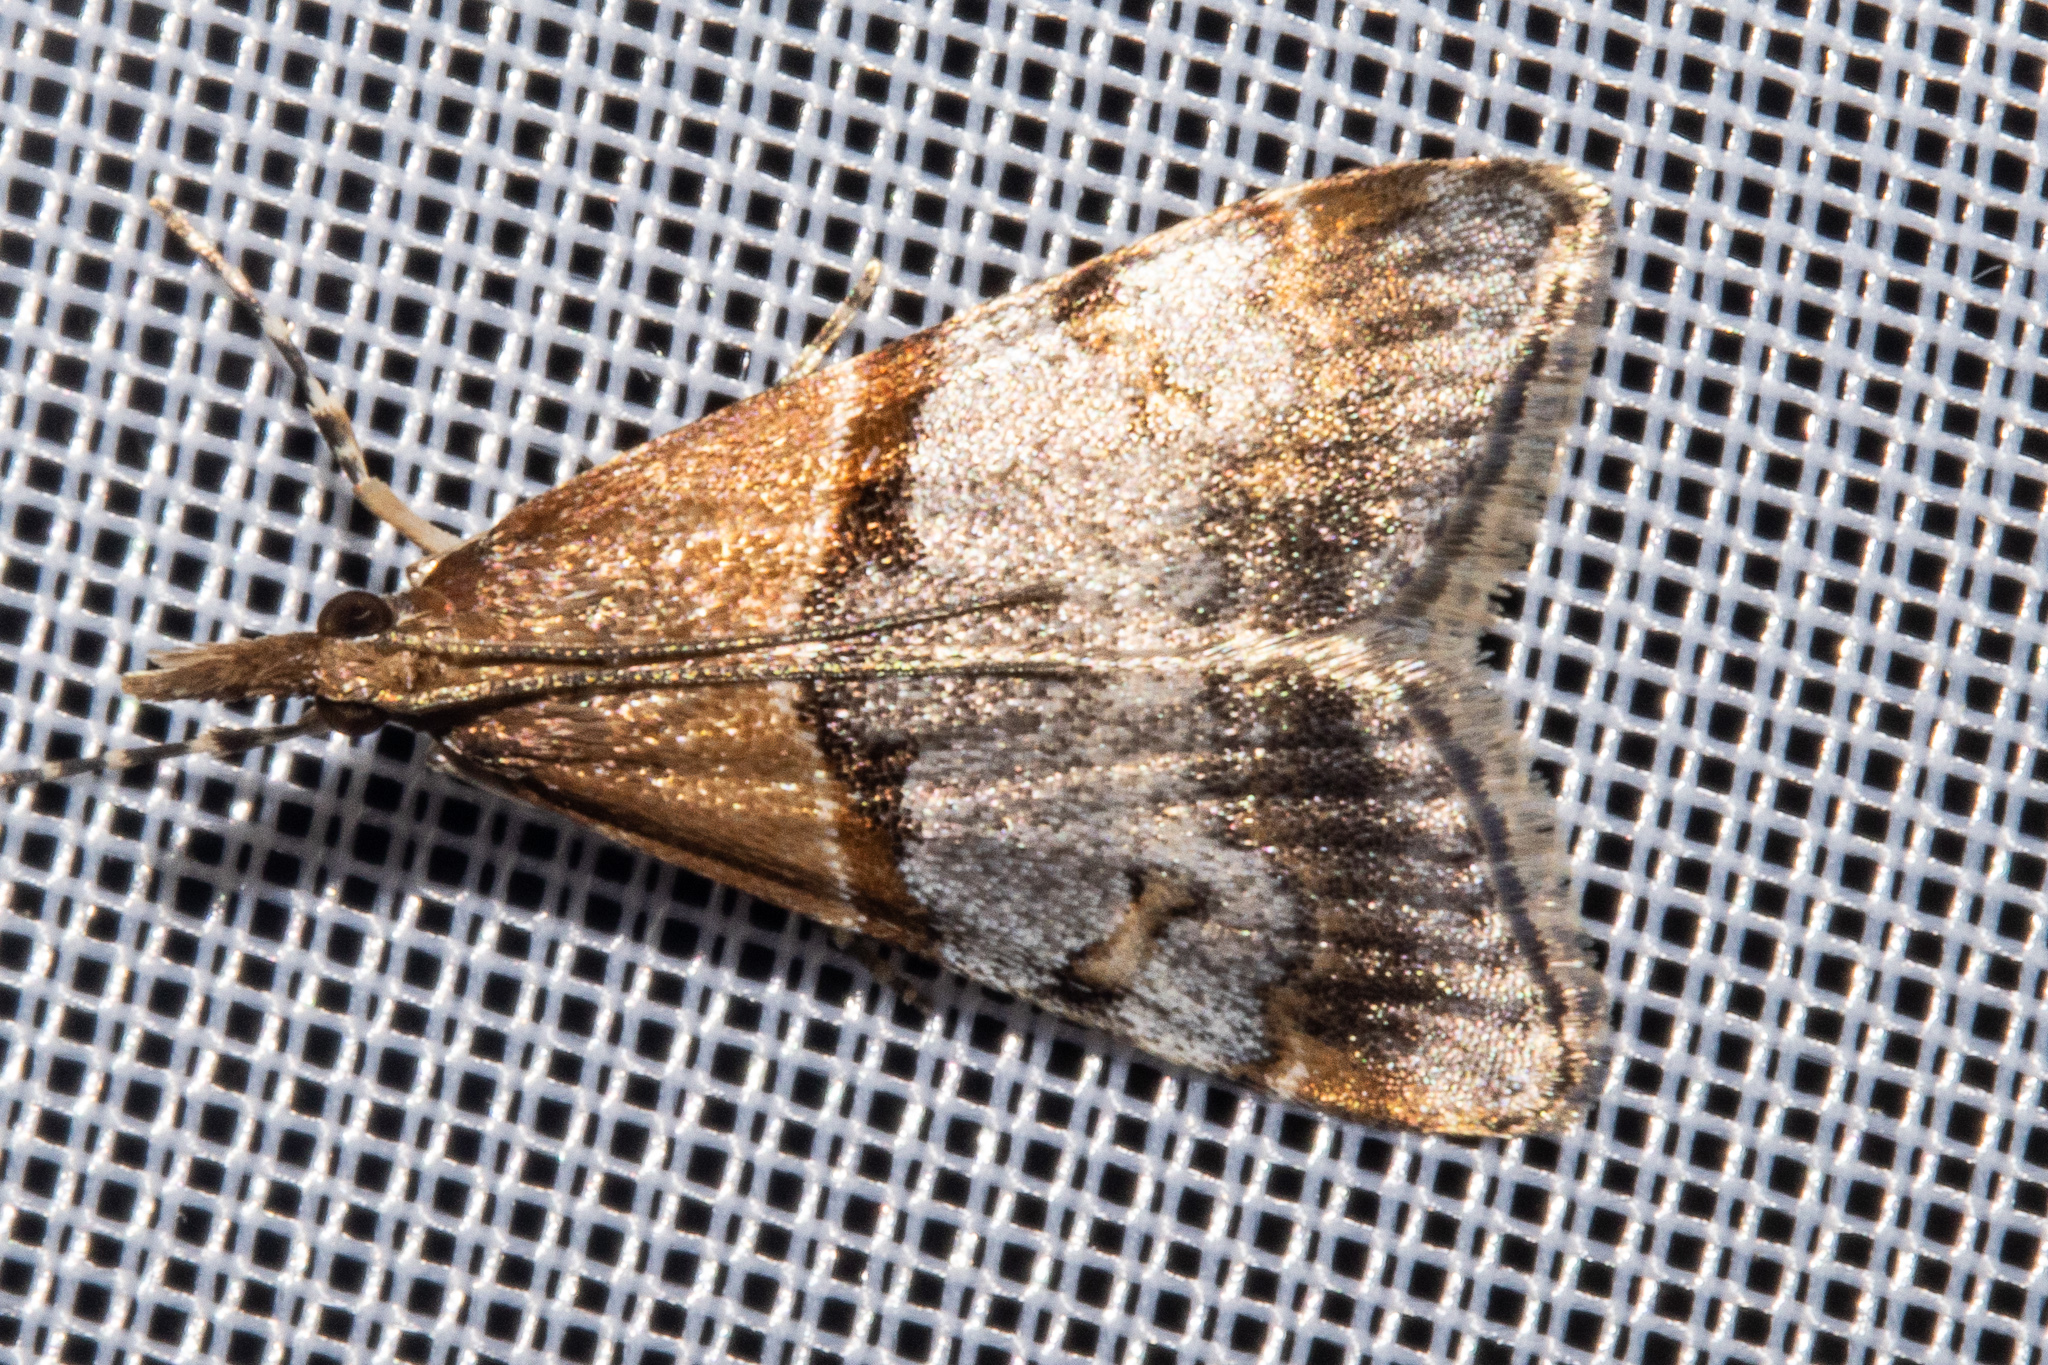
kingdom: Animalia
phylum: Arthropoda
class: Insecta
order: Lepidoptera
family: Crambidae
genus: Antiscopa
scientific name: Antiscopa epicomia
